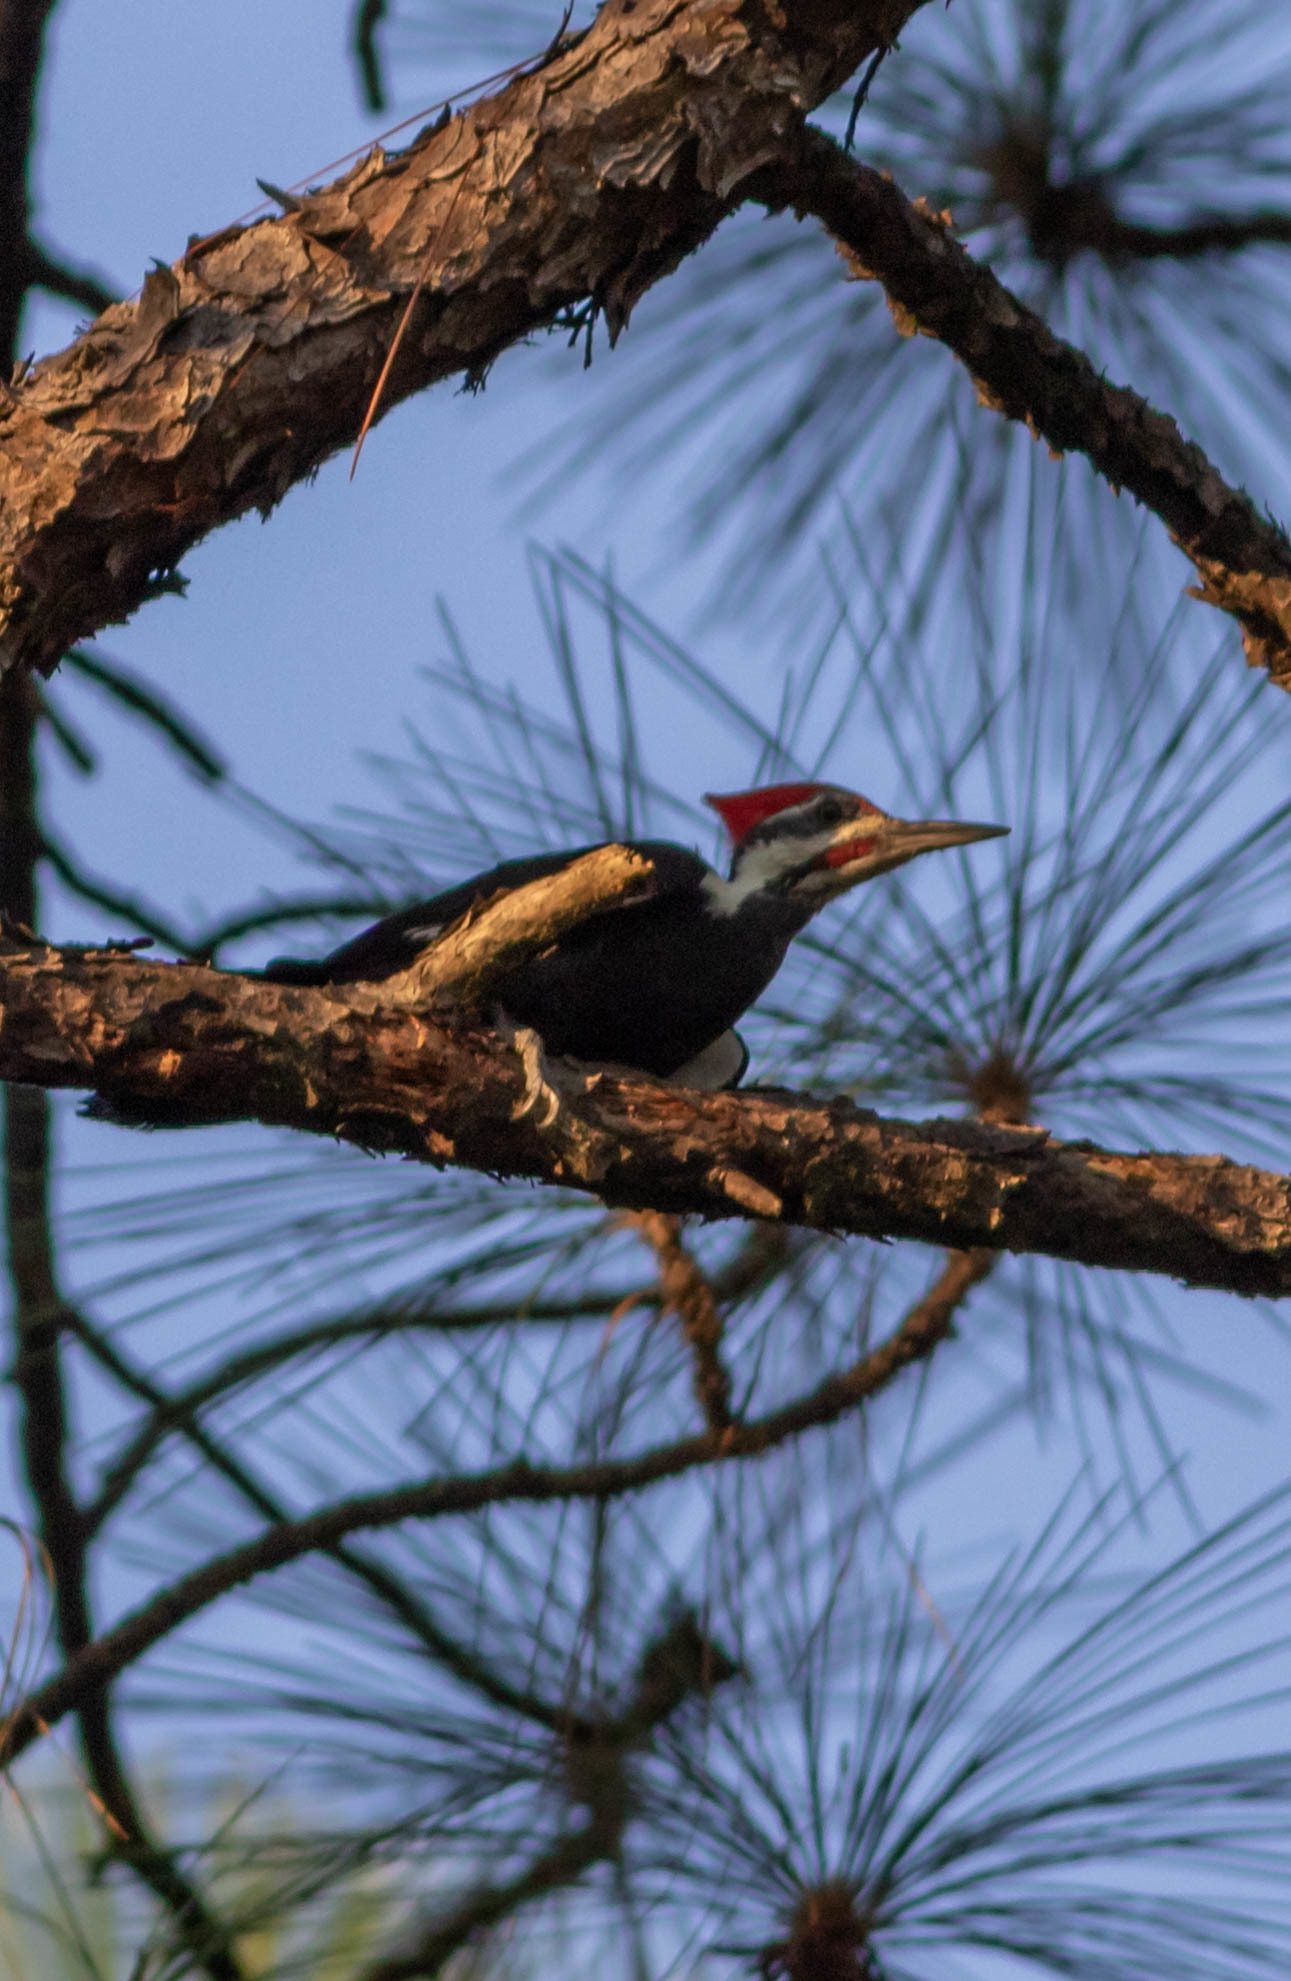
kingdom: Animalia
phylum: Chordata
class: Aves
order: Piciformes
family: Picidae
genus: Dryocopus
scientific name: Dryocopus pileatus
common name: Pileated woodpecker
